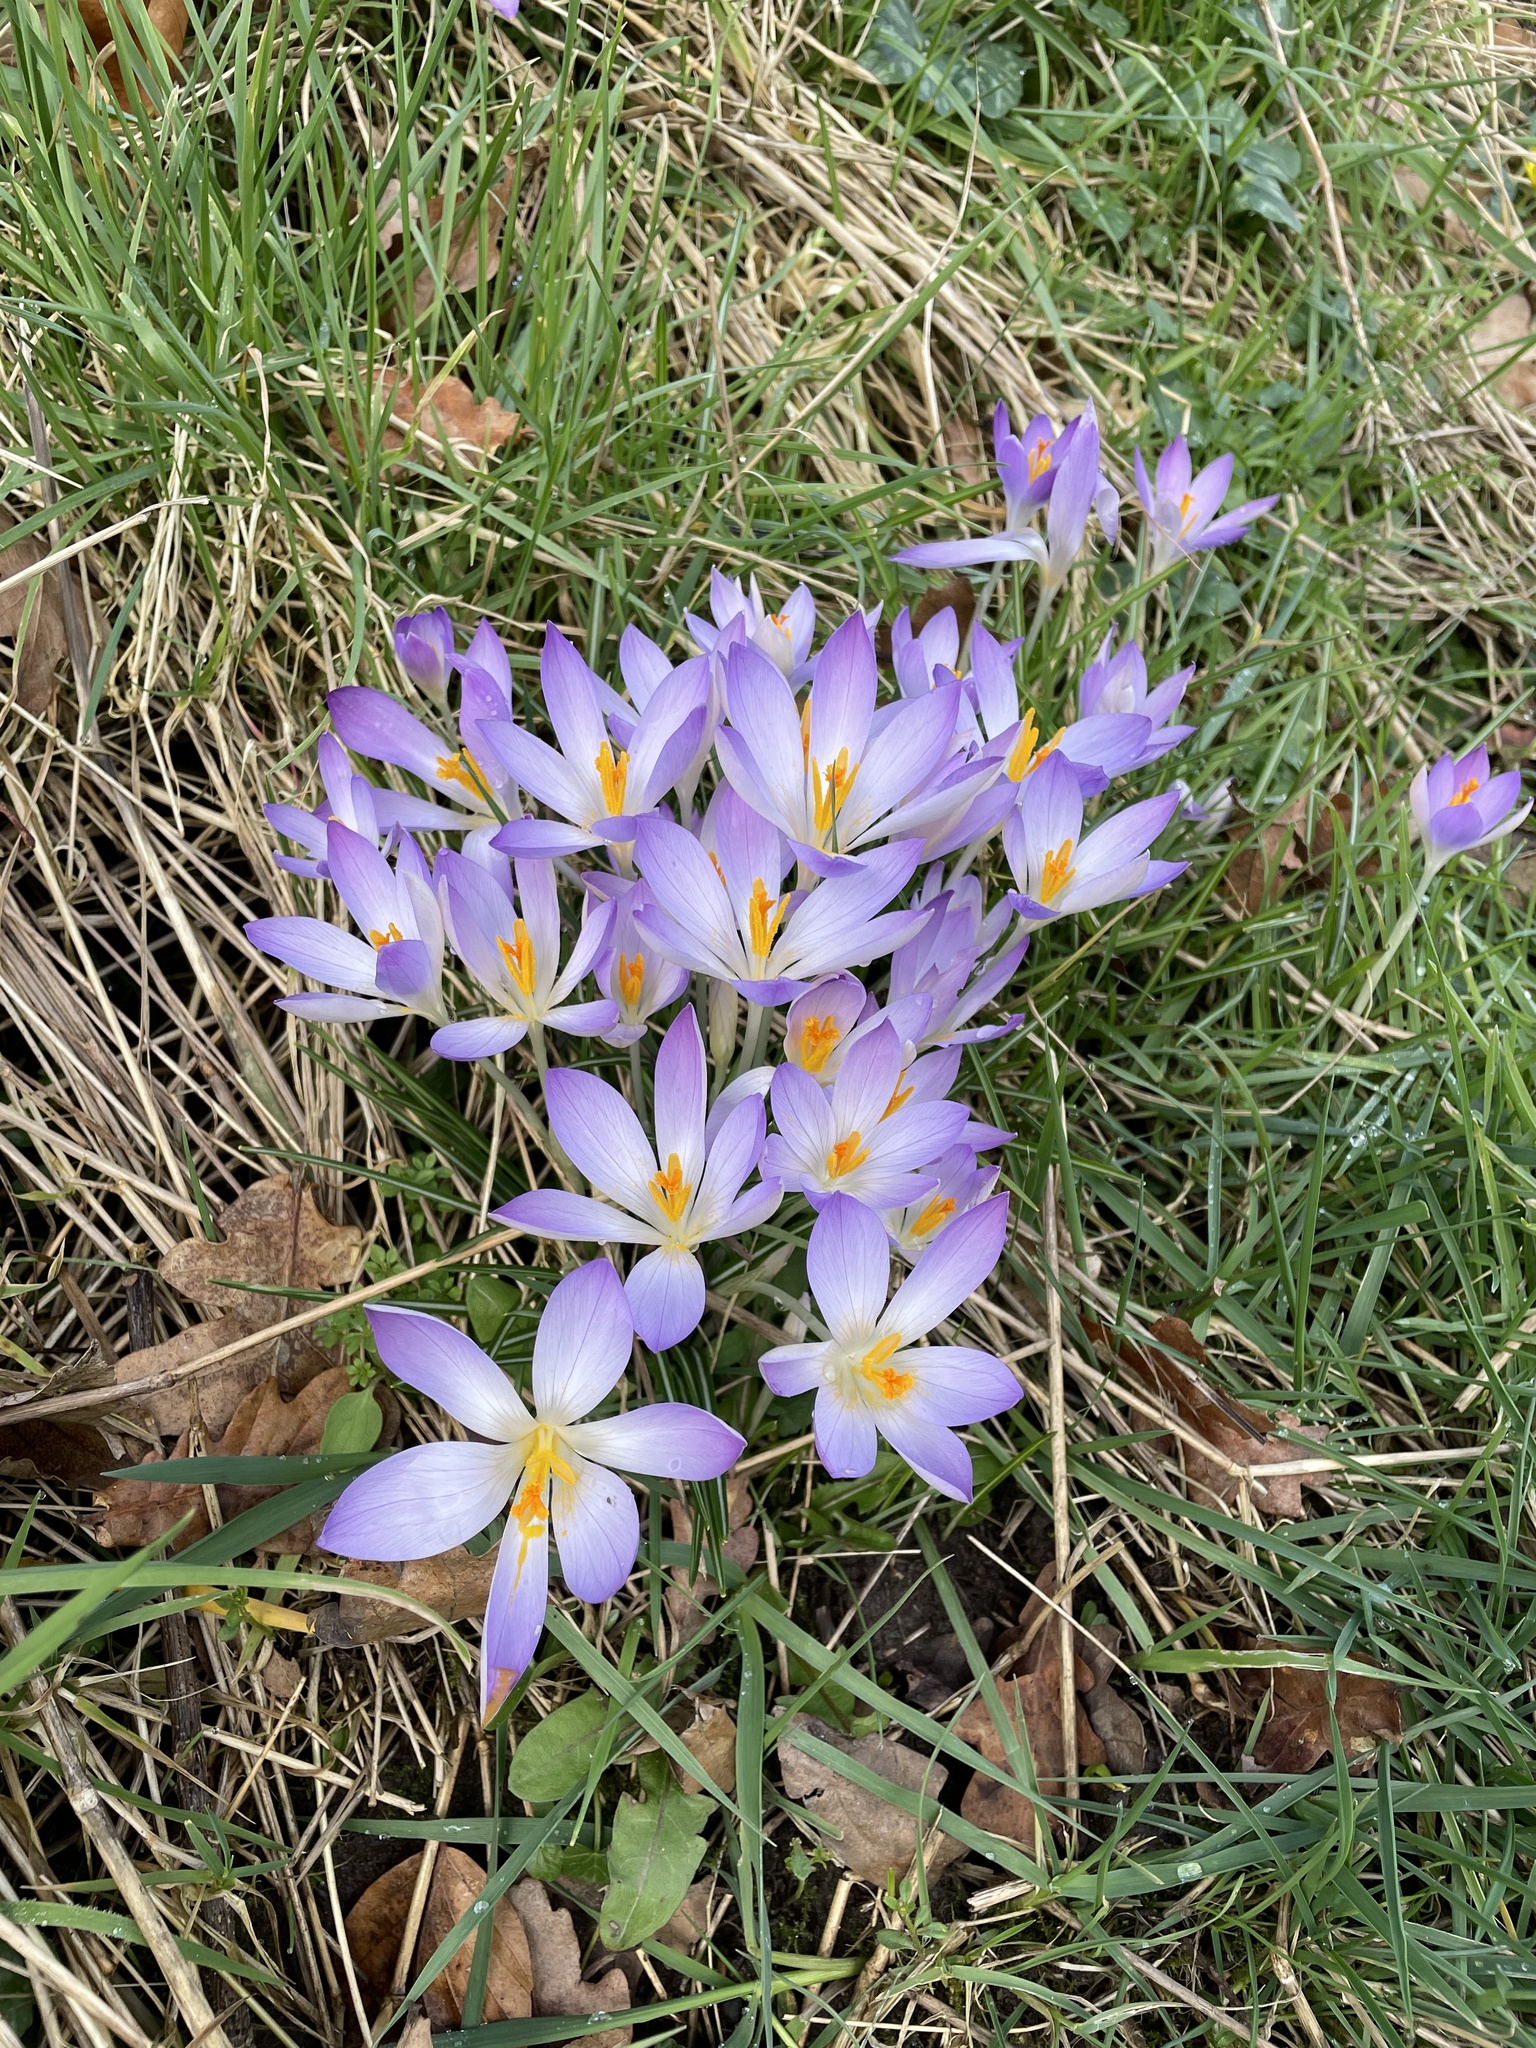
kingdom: Plantae
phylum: Tracheophyta
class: Liliopsida
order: Asparagales
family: Iridaceae
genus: Crocus
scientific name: Crocus tommasinianus
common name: Early crocus
